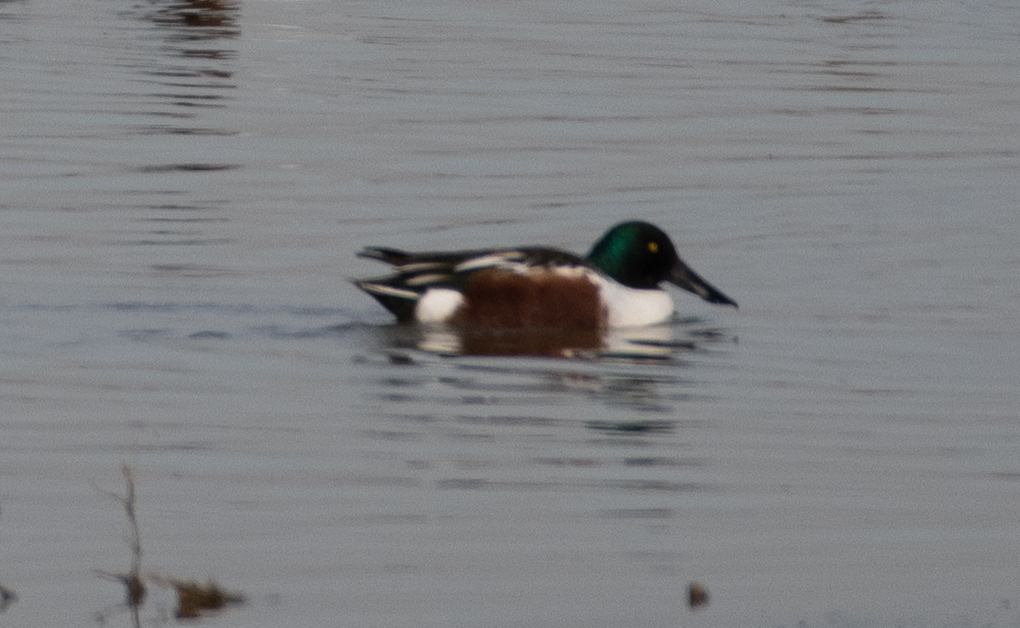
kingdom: Animalia
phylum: Chordata
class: Aves
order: Anseriformes
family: Anatidae
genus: Spatula
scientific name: Spatula clypeata
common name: Northern shoveler
